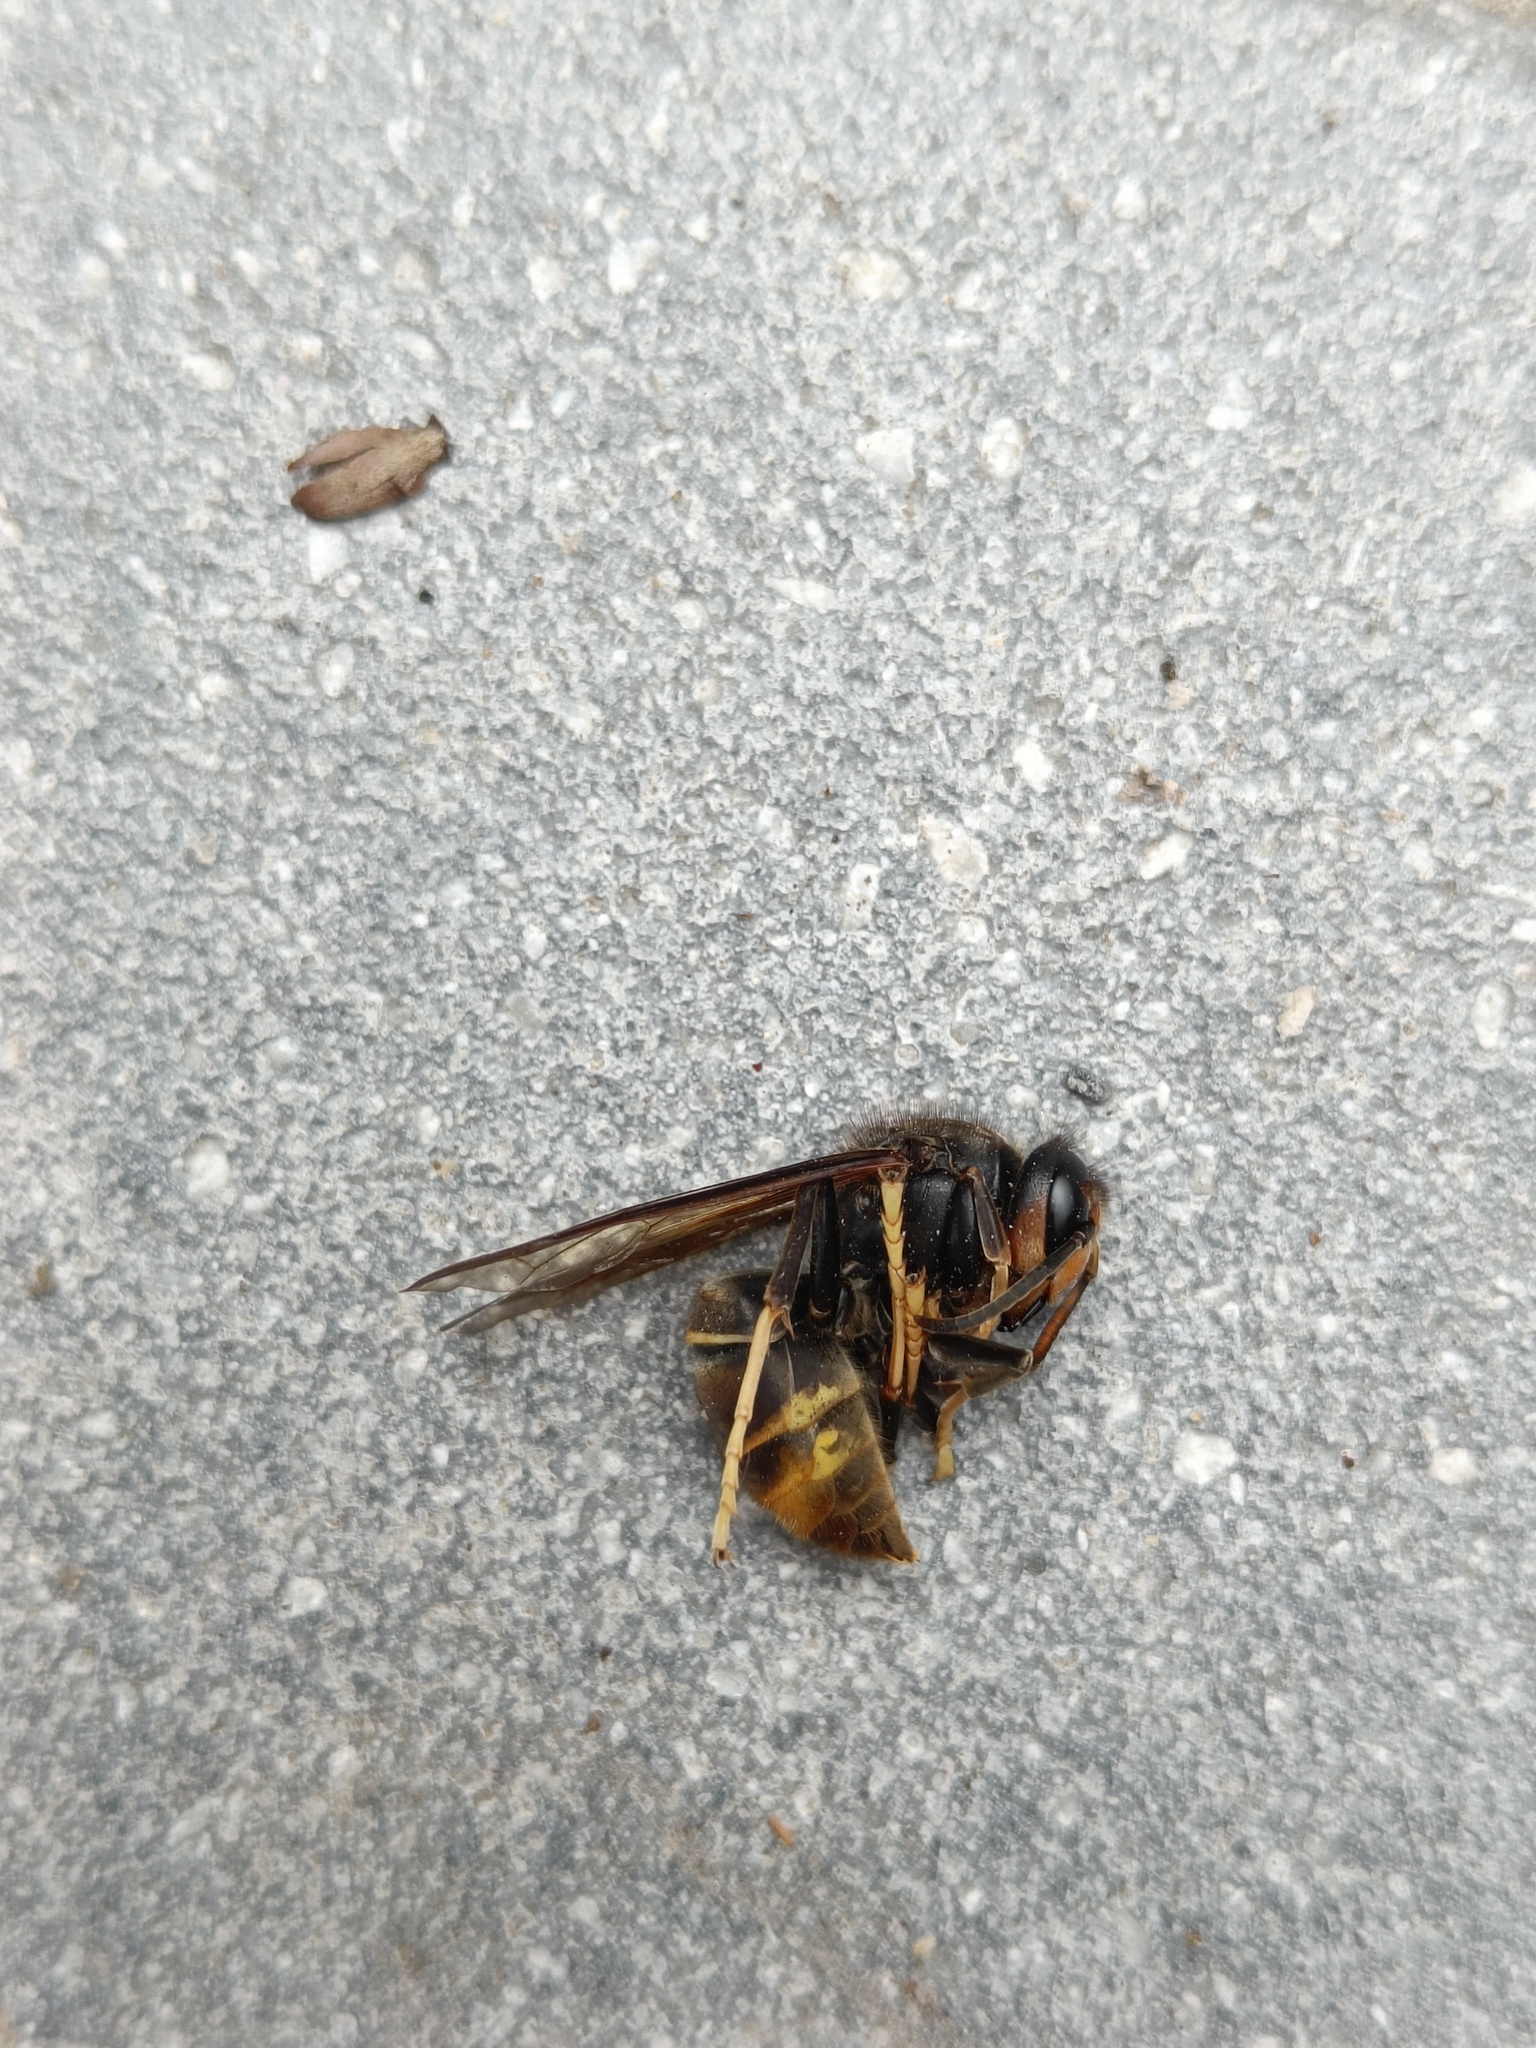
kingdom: Animalia
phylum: Arthropoda
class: Insecta
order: Hymenoptera
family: Vespidae
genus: Vespa
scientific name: Vespa velutina
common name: Asian hornet
